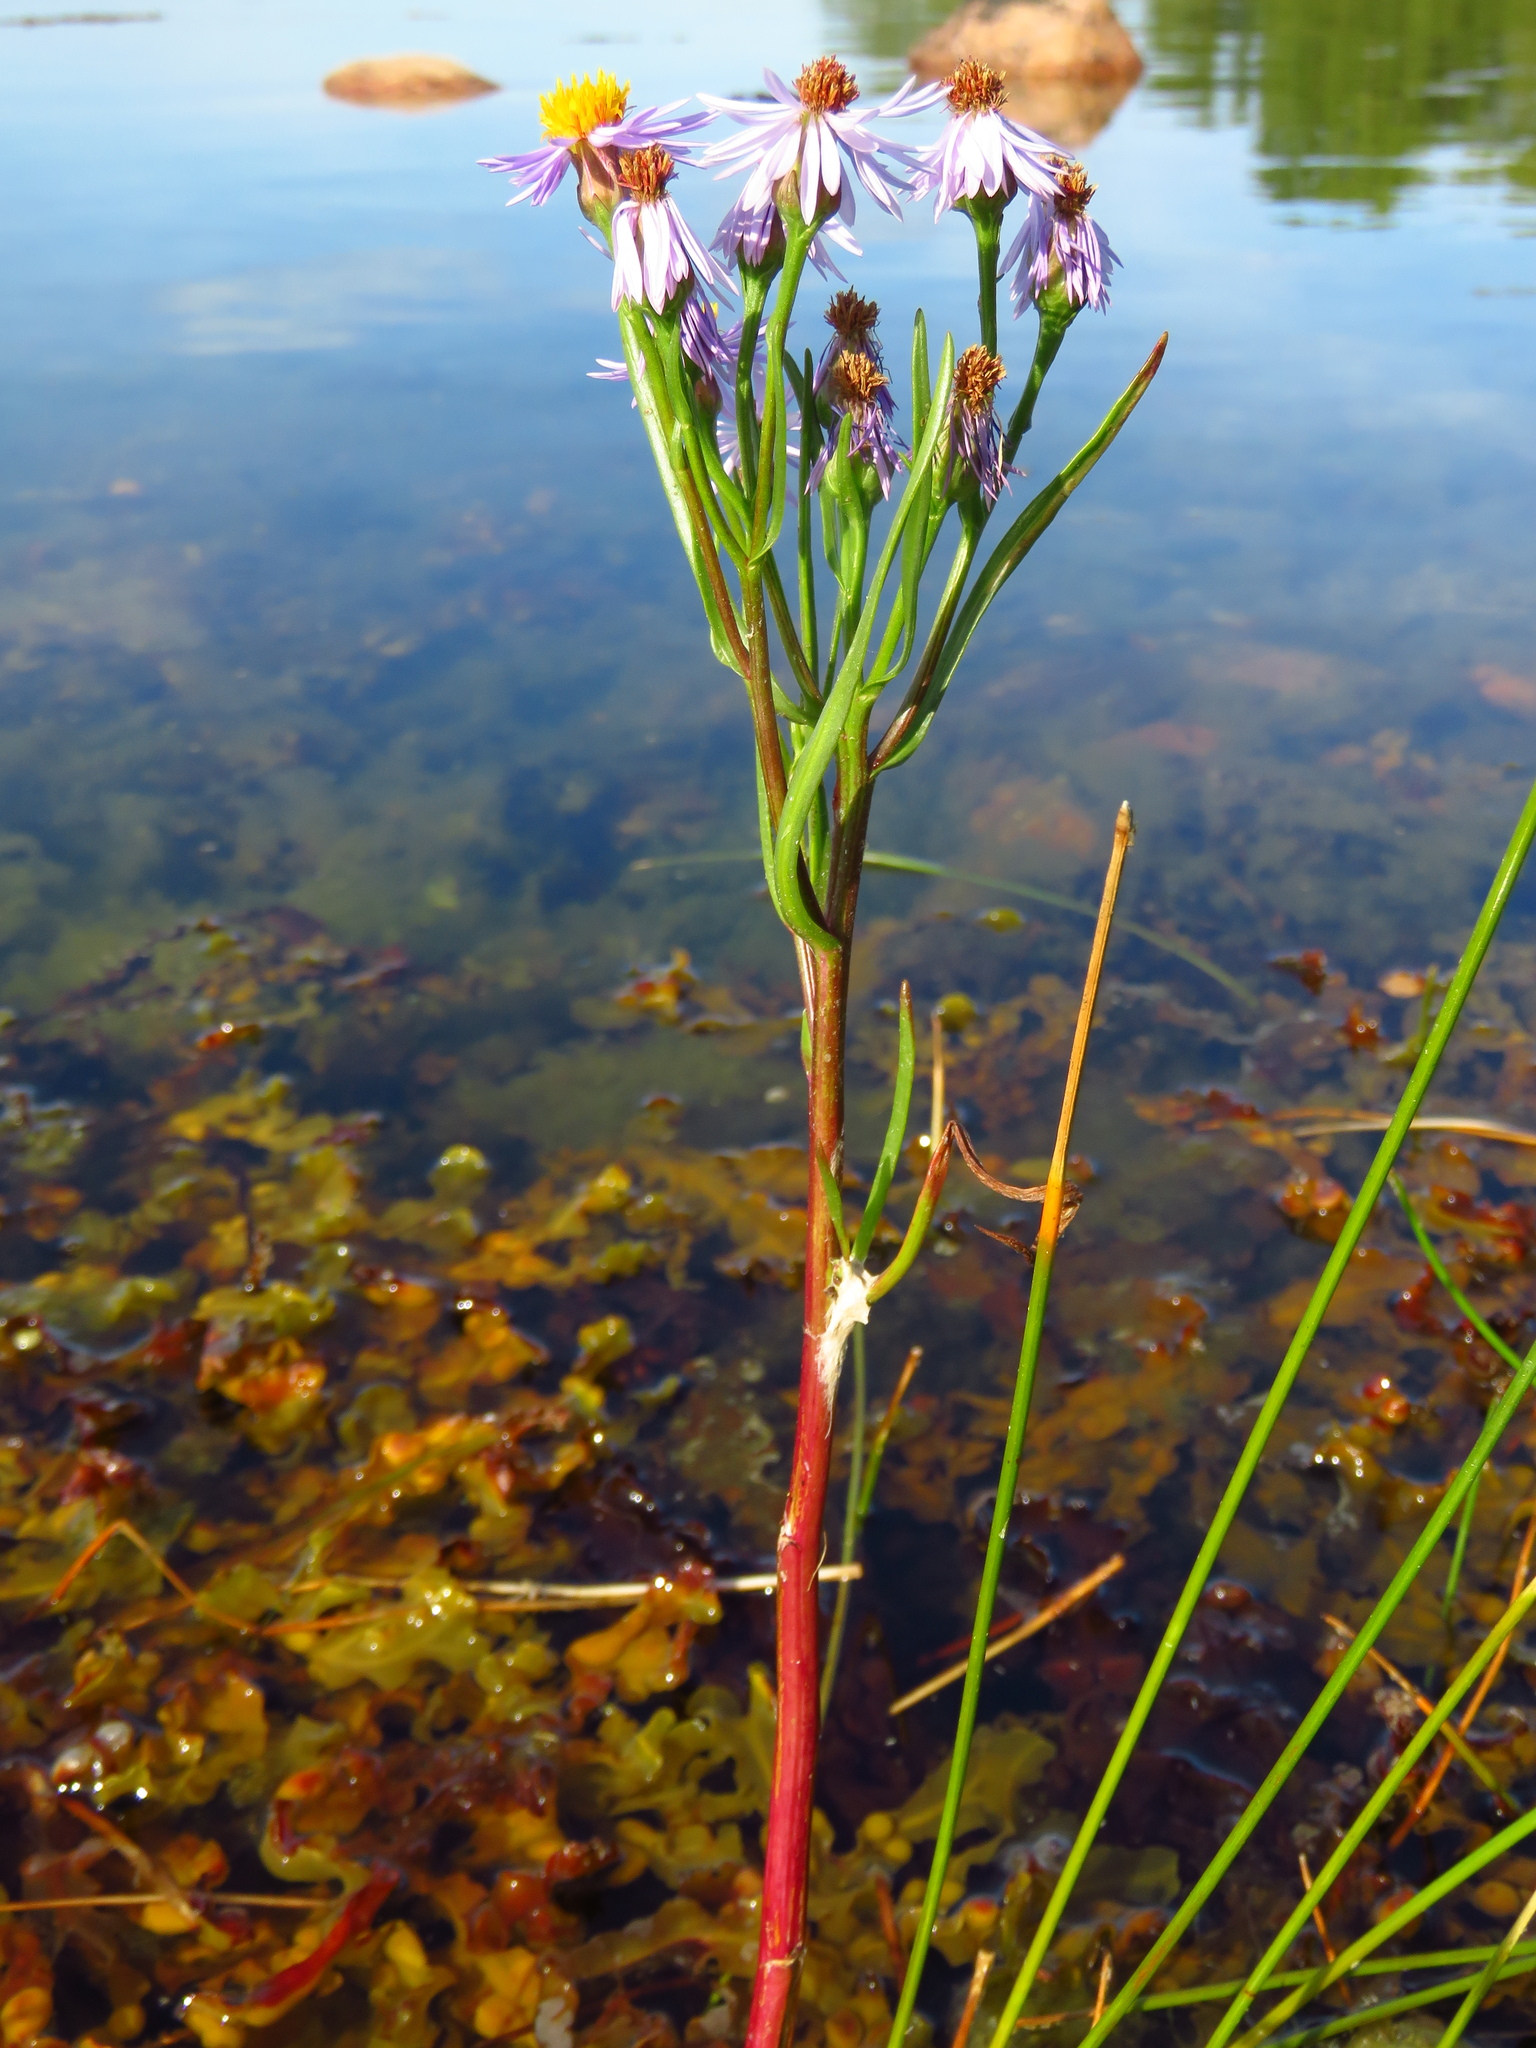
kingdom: Plantae
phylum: Tracheophyta
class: Magnoliopsida
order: Asterales
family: Asteraceae
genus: Tripolium
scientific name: Tripolium pannonicum
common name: Sea aster
